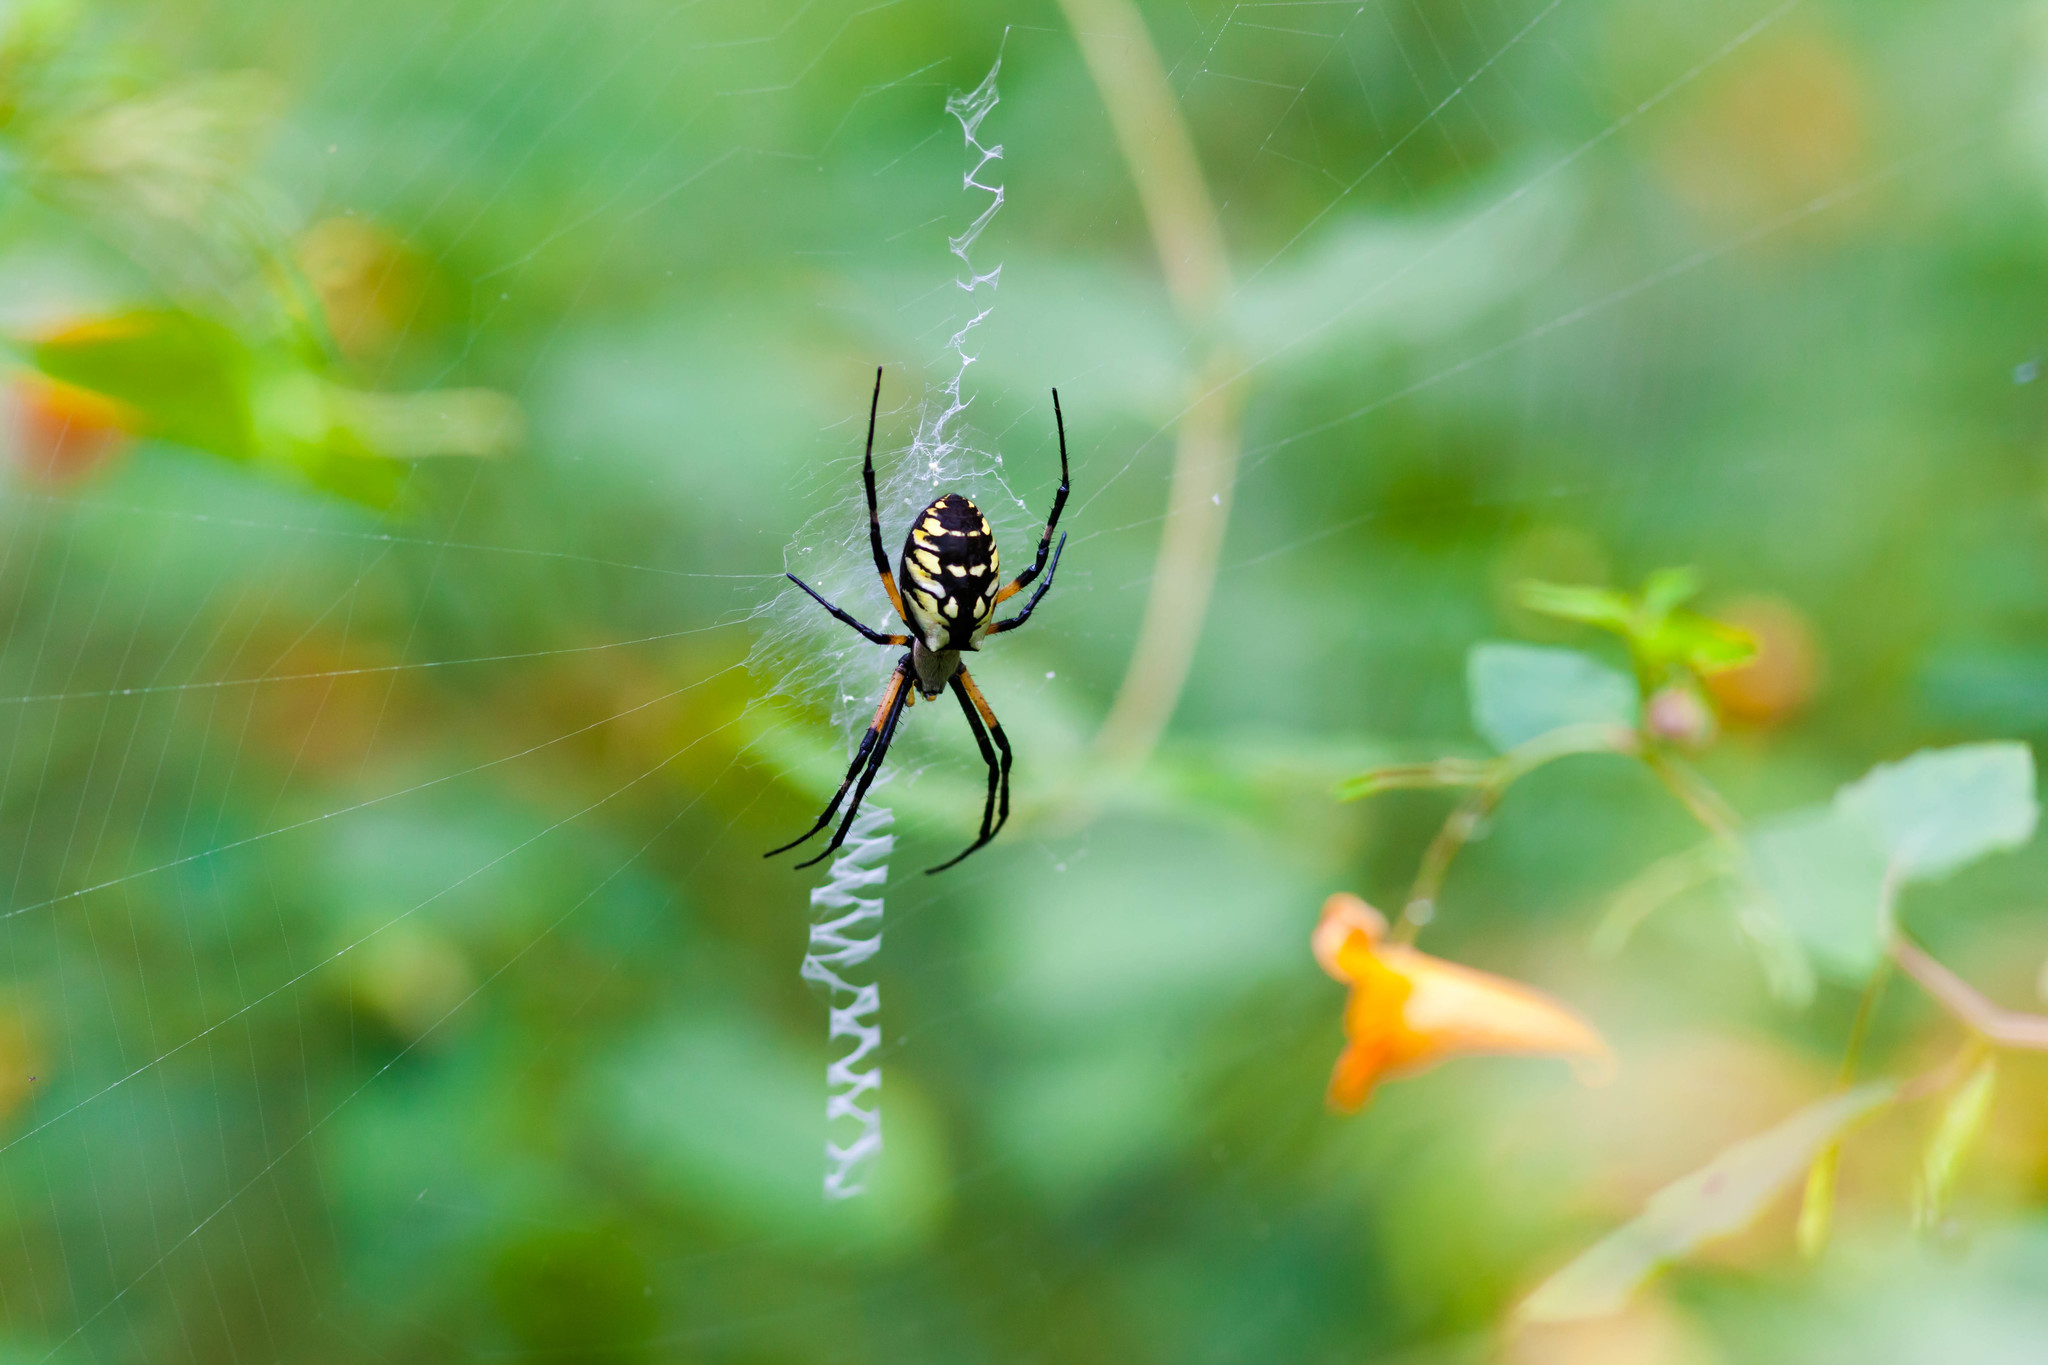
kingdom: Animalia
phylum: Arthropoda
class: Arachnida
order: Araneae
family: Araneidae
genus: Argiope
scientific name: Argiope aurantia
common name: Orb weavers
